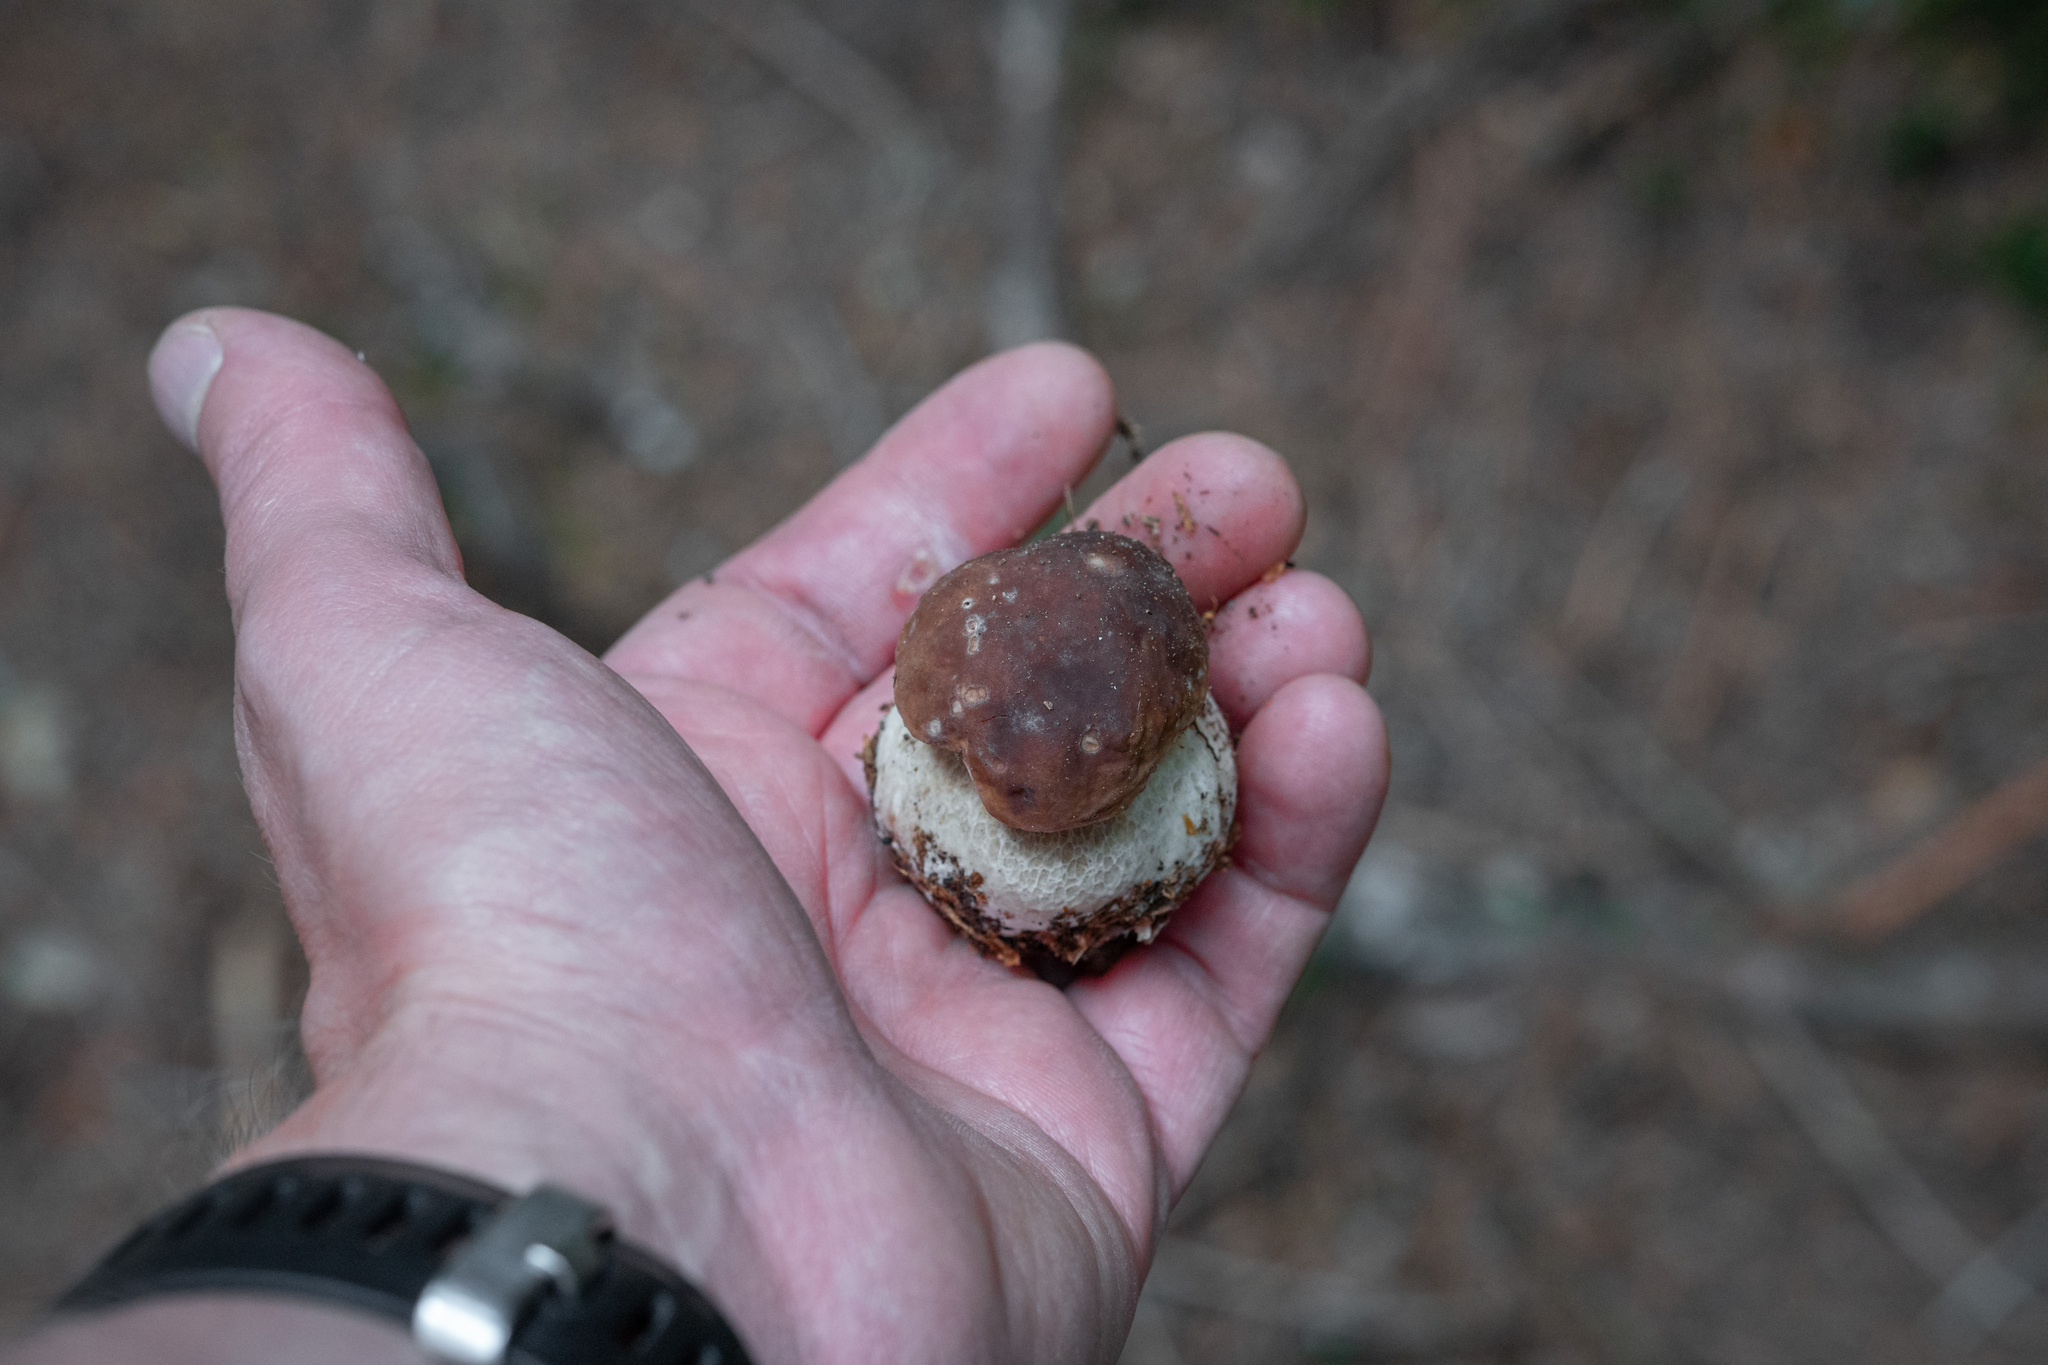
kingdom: Fungi
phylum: Basidiomycota
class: Agaricomycetes
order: Boletales
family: Boletaceae
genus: Boletus
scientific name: Boletus edulis
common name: Cep
